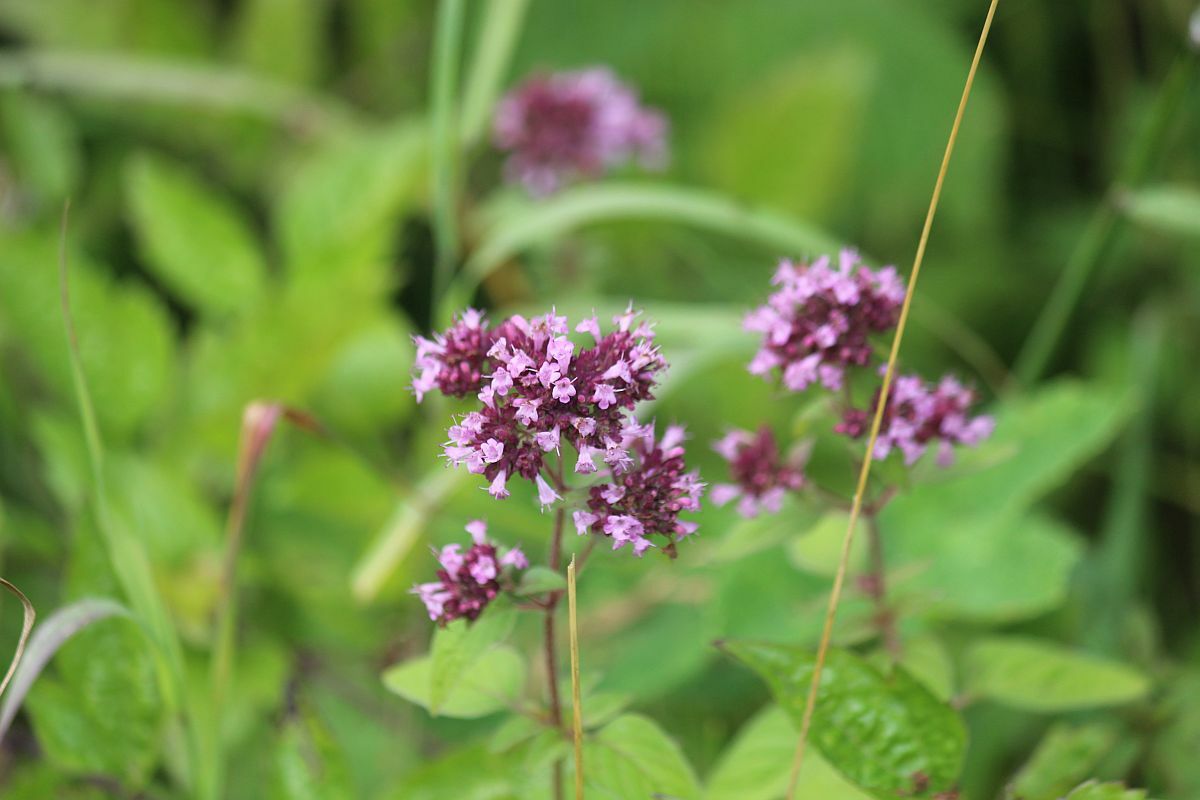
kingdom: Plantae
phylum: Tracheophyta
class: Magnoliopsida
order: Lamiales
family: Lamiaceae
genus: Origanum
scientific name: Origanum vulgare
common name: Wild marjoram
